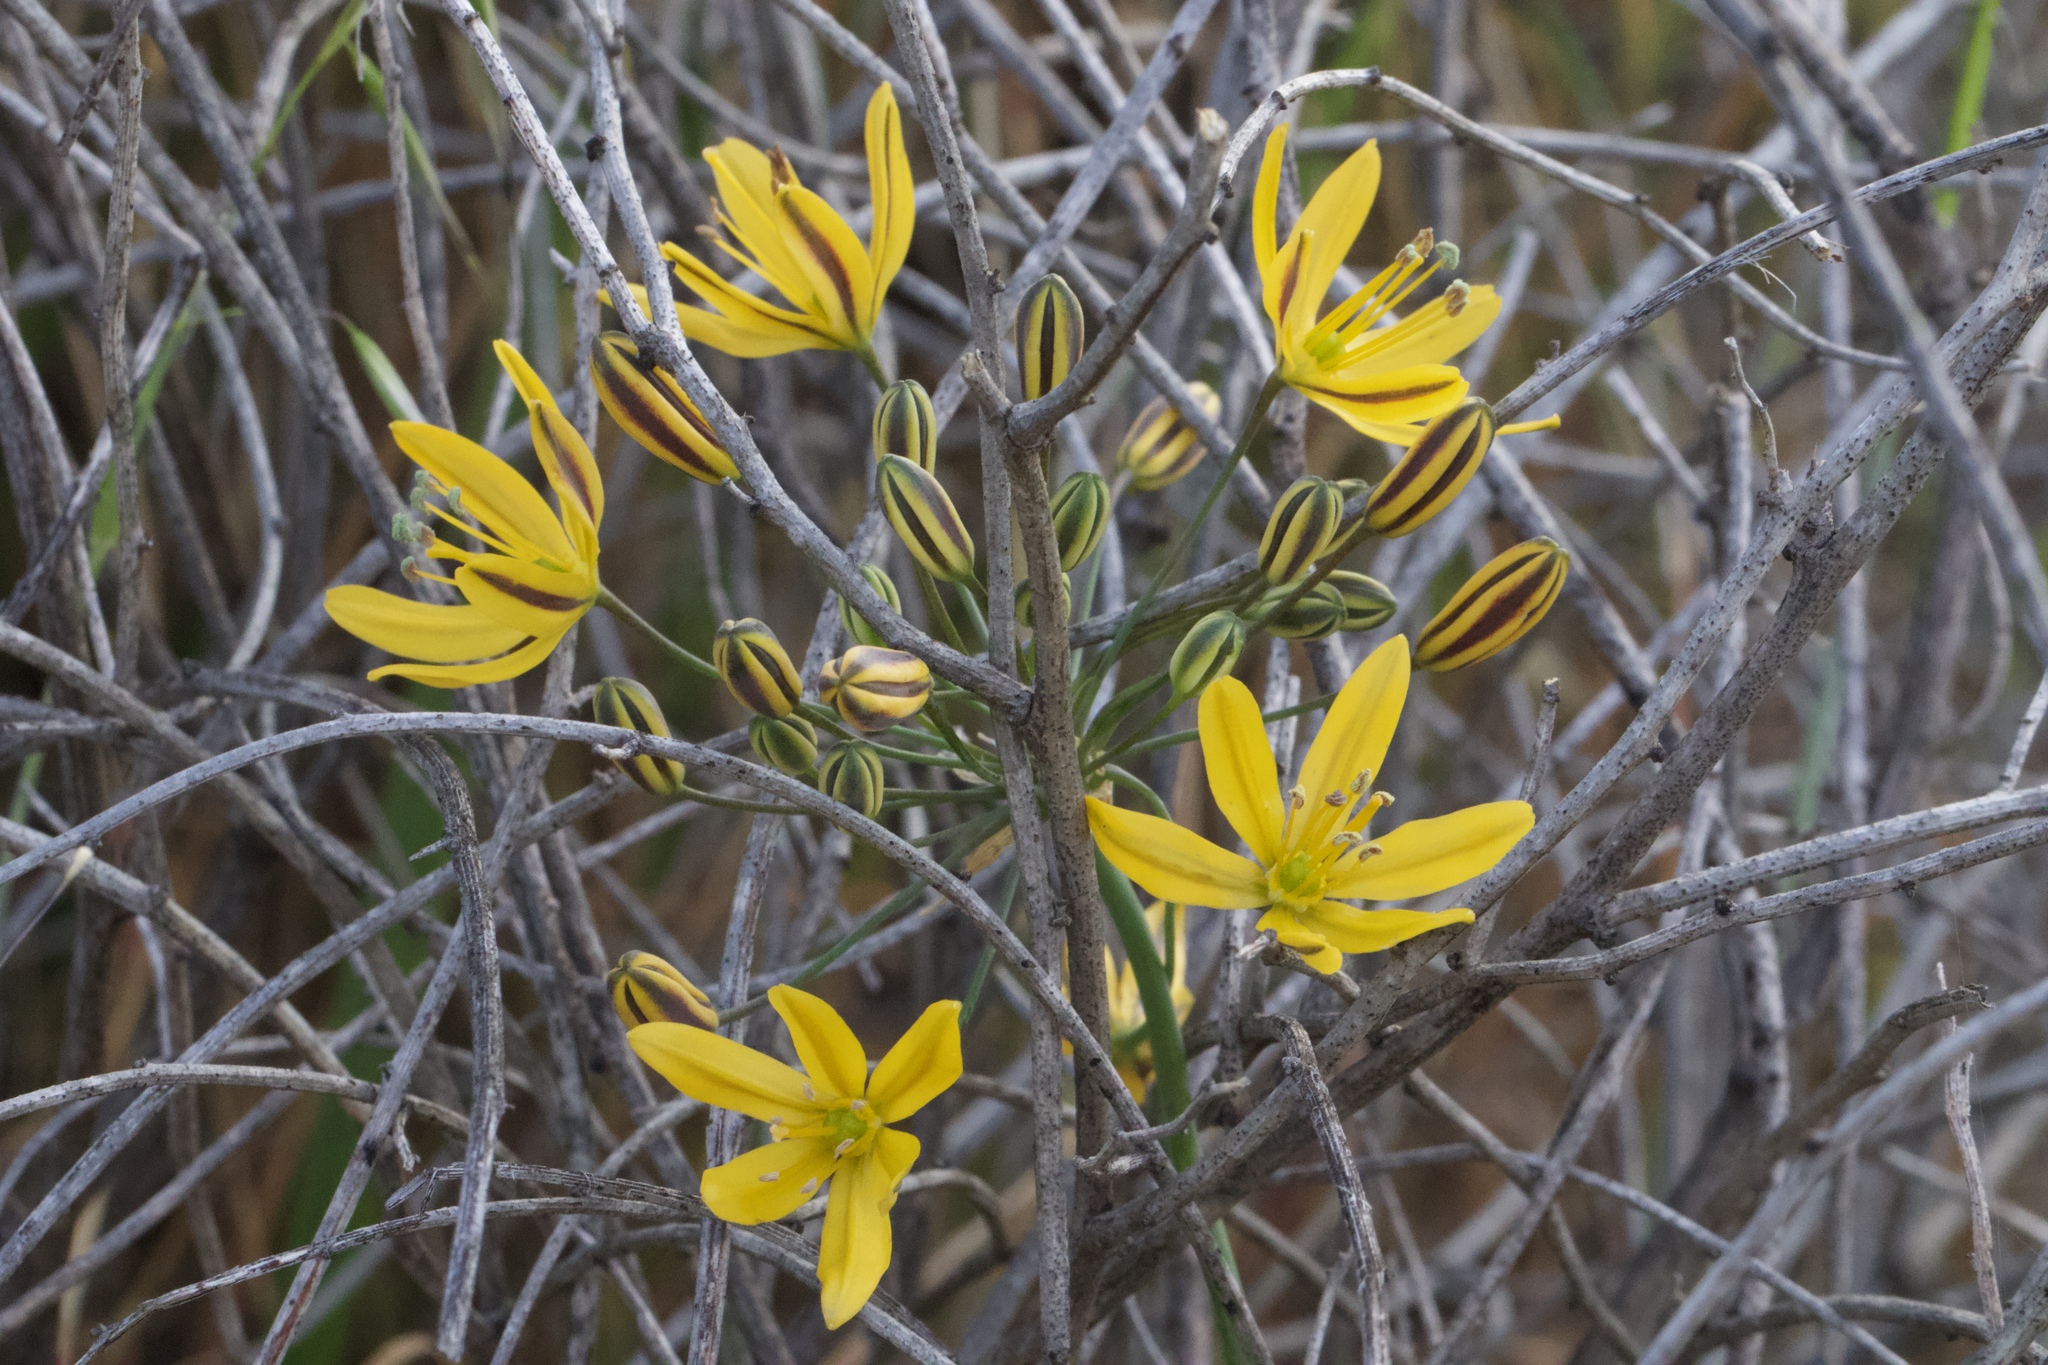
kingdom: Plantae
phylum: Tracheophyta
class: Liliopsida
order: Asparagales
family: Asparagaceae
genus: Bloomeria
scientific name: Bloomeria crocea
